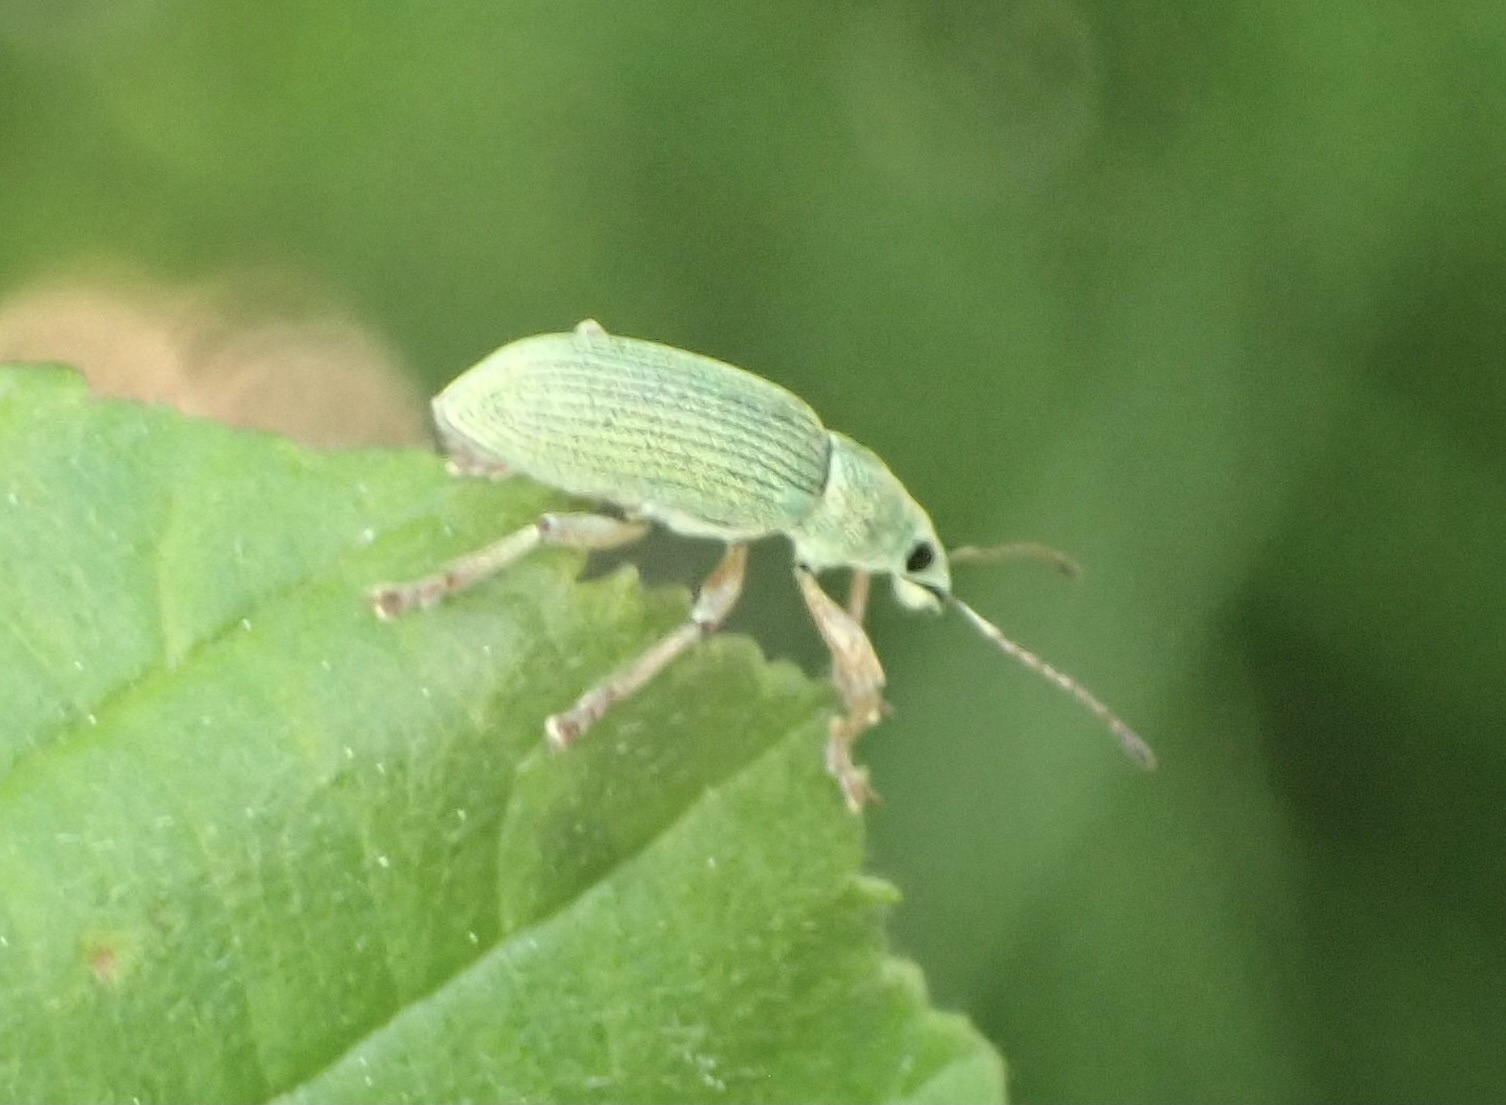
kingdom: Animalia
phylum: Arthropoda
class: Insecta
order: Coleoptera
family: Curculionidae
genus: Polydrusus
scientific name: Polydrusus formosus
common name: Weevil
